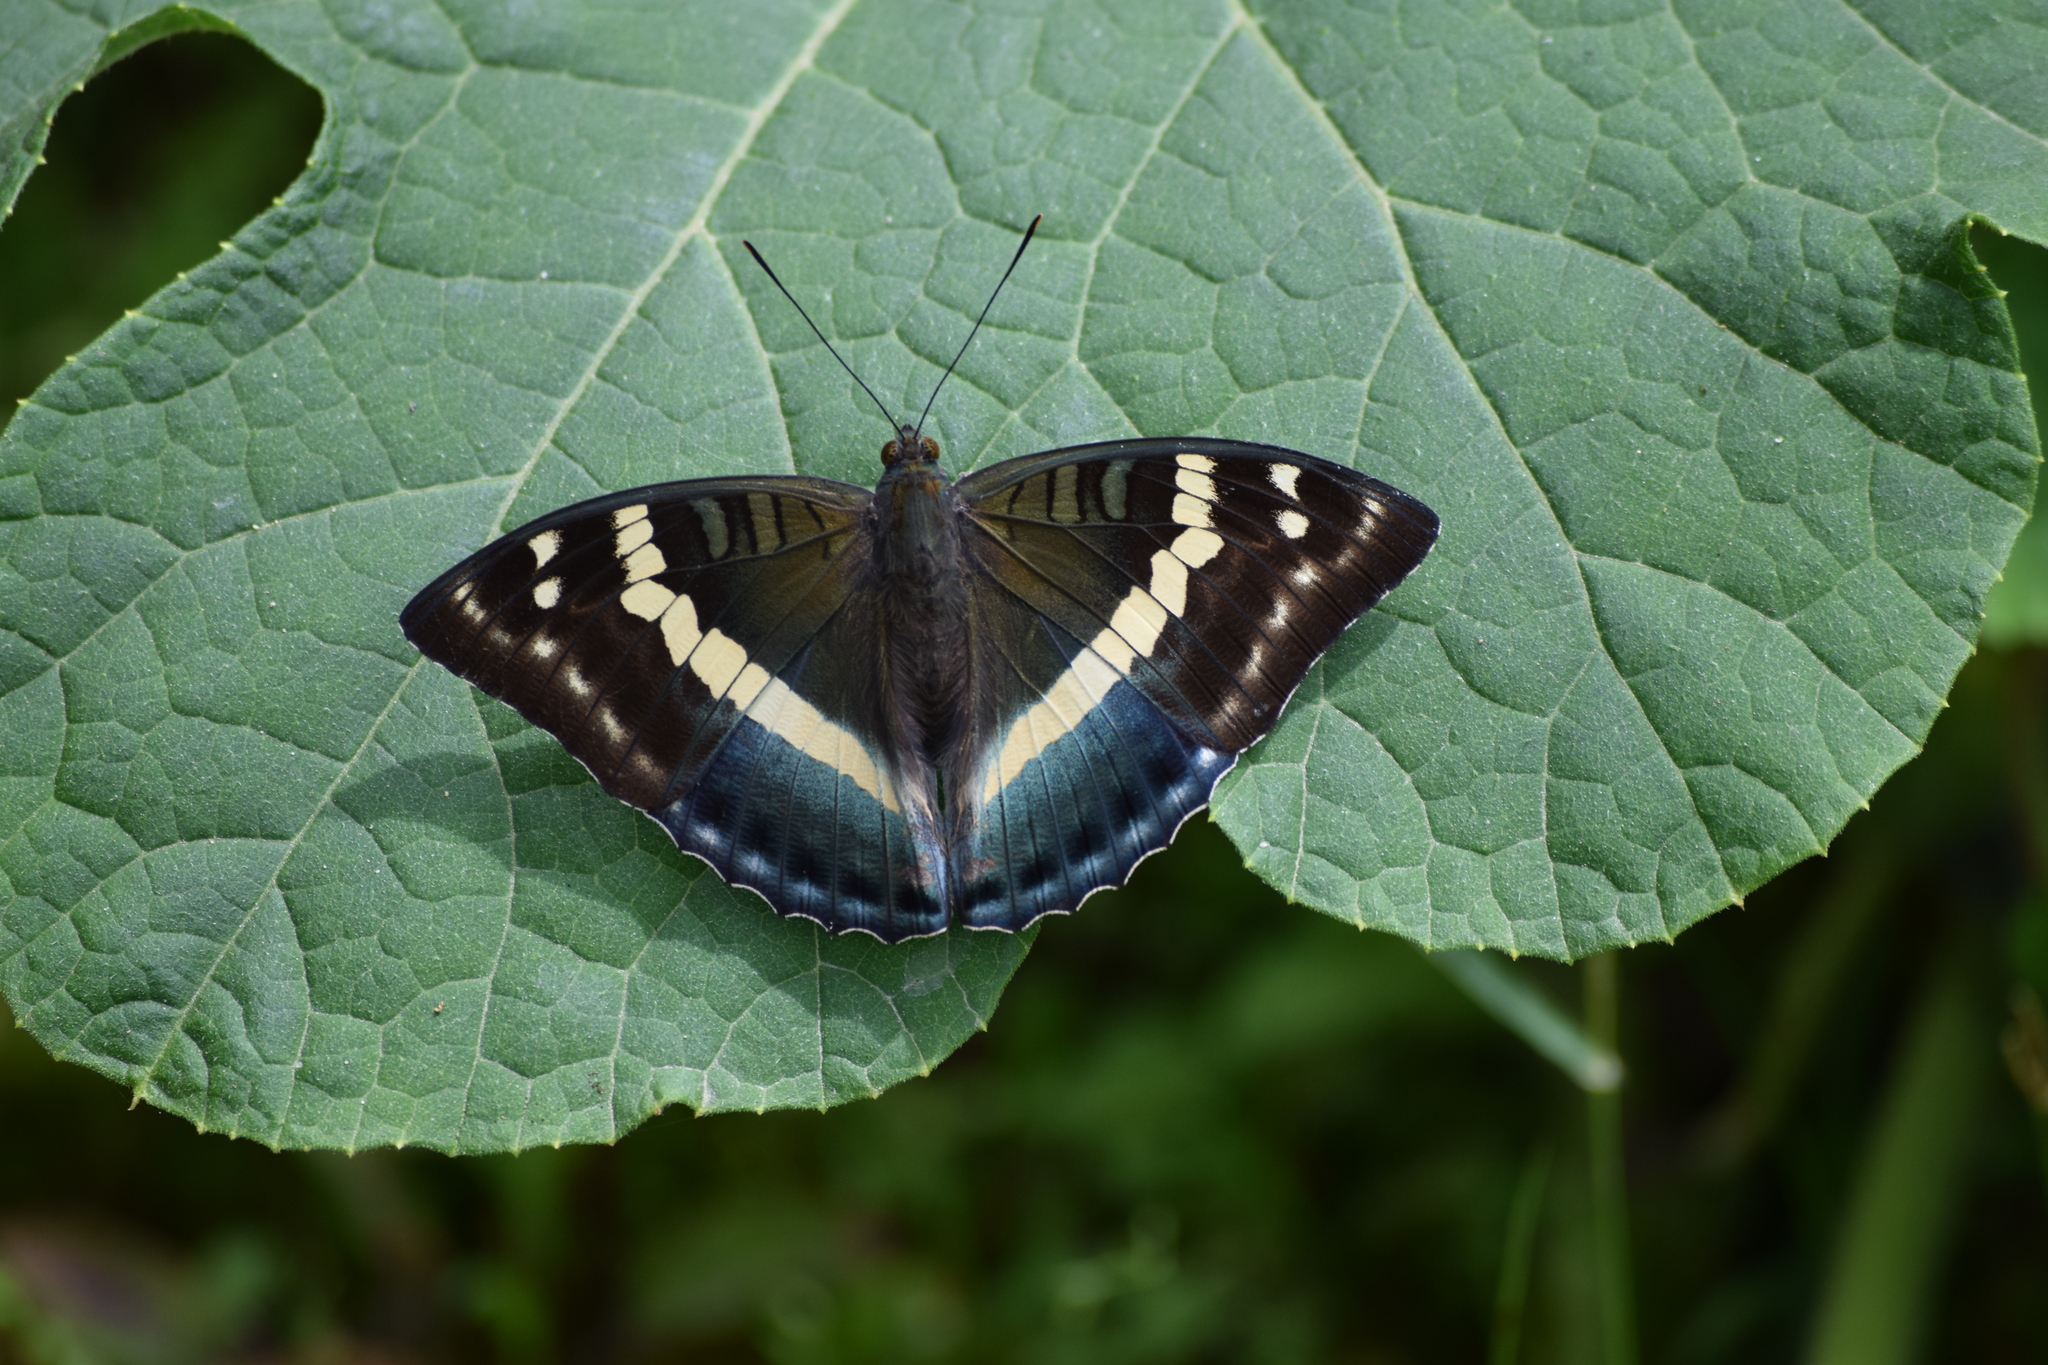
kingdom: Animalia
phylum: Arthropoda
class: Insecta
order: Lepidoptera
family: Nymphalidae
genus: Euthalia
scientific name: Euthalia franciae
